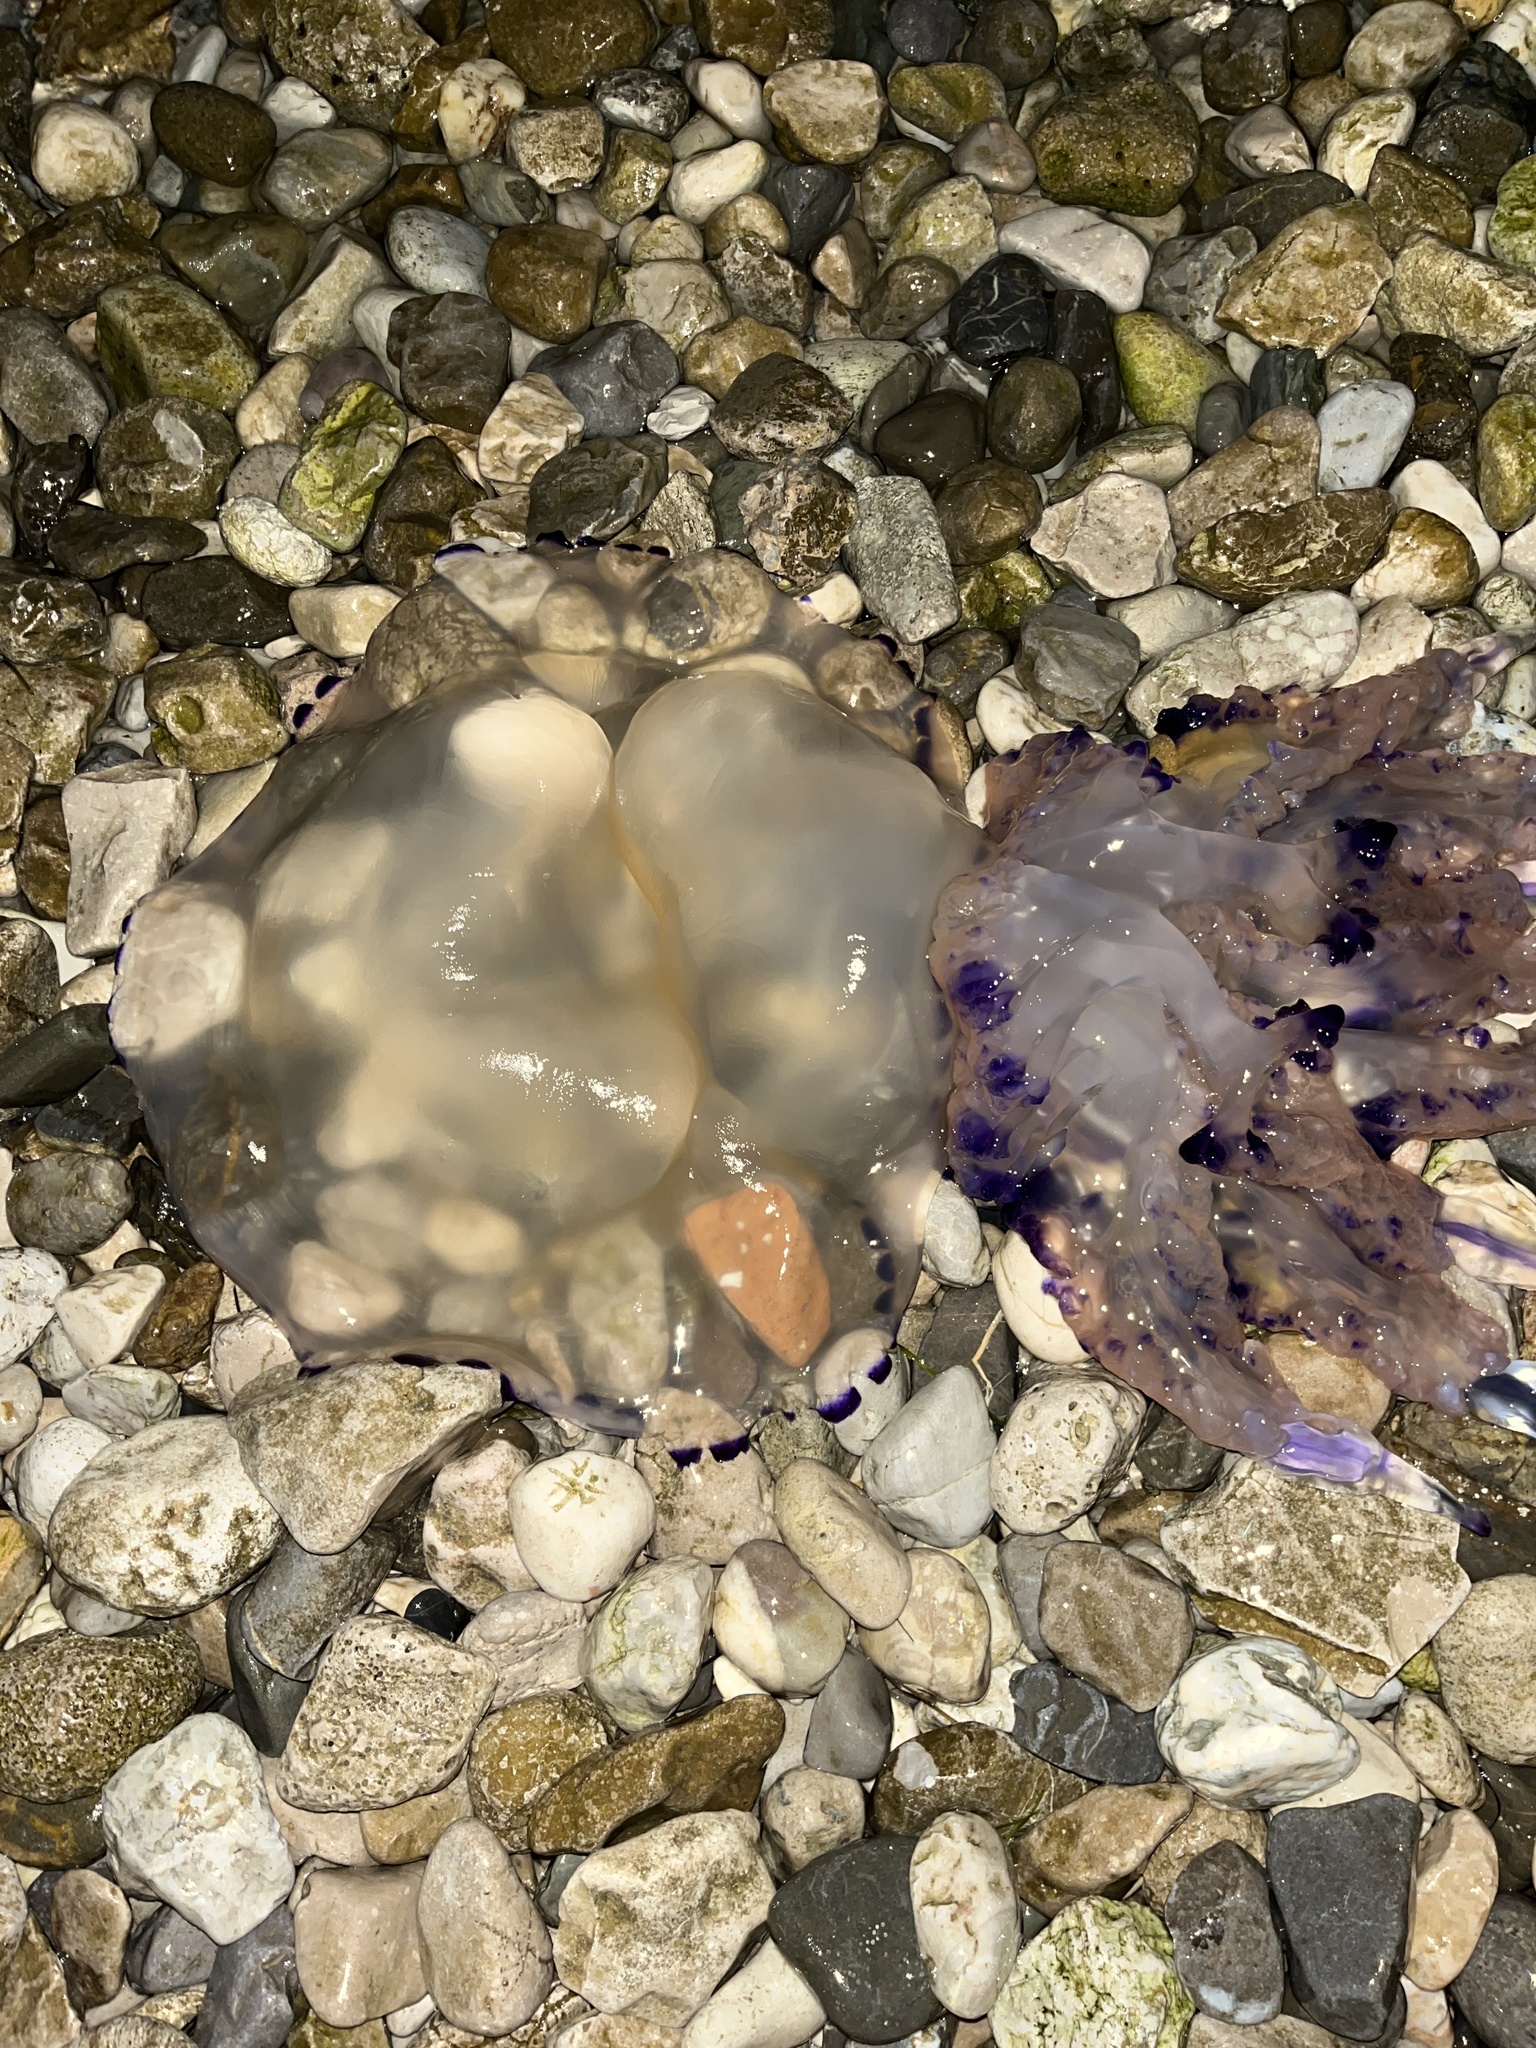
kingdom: Animalia
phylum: Cnidaria
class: Scyphozoa
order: Rhizostomeae
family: Rhizostomatidae
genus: Rhizostoma
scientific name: Rhizostoma pulmo
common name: Barrel jellyfish
